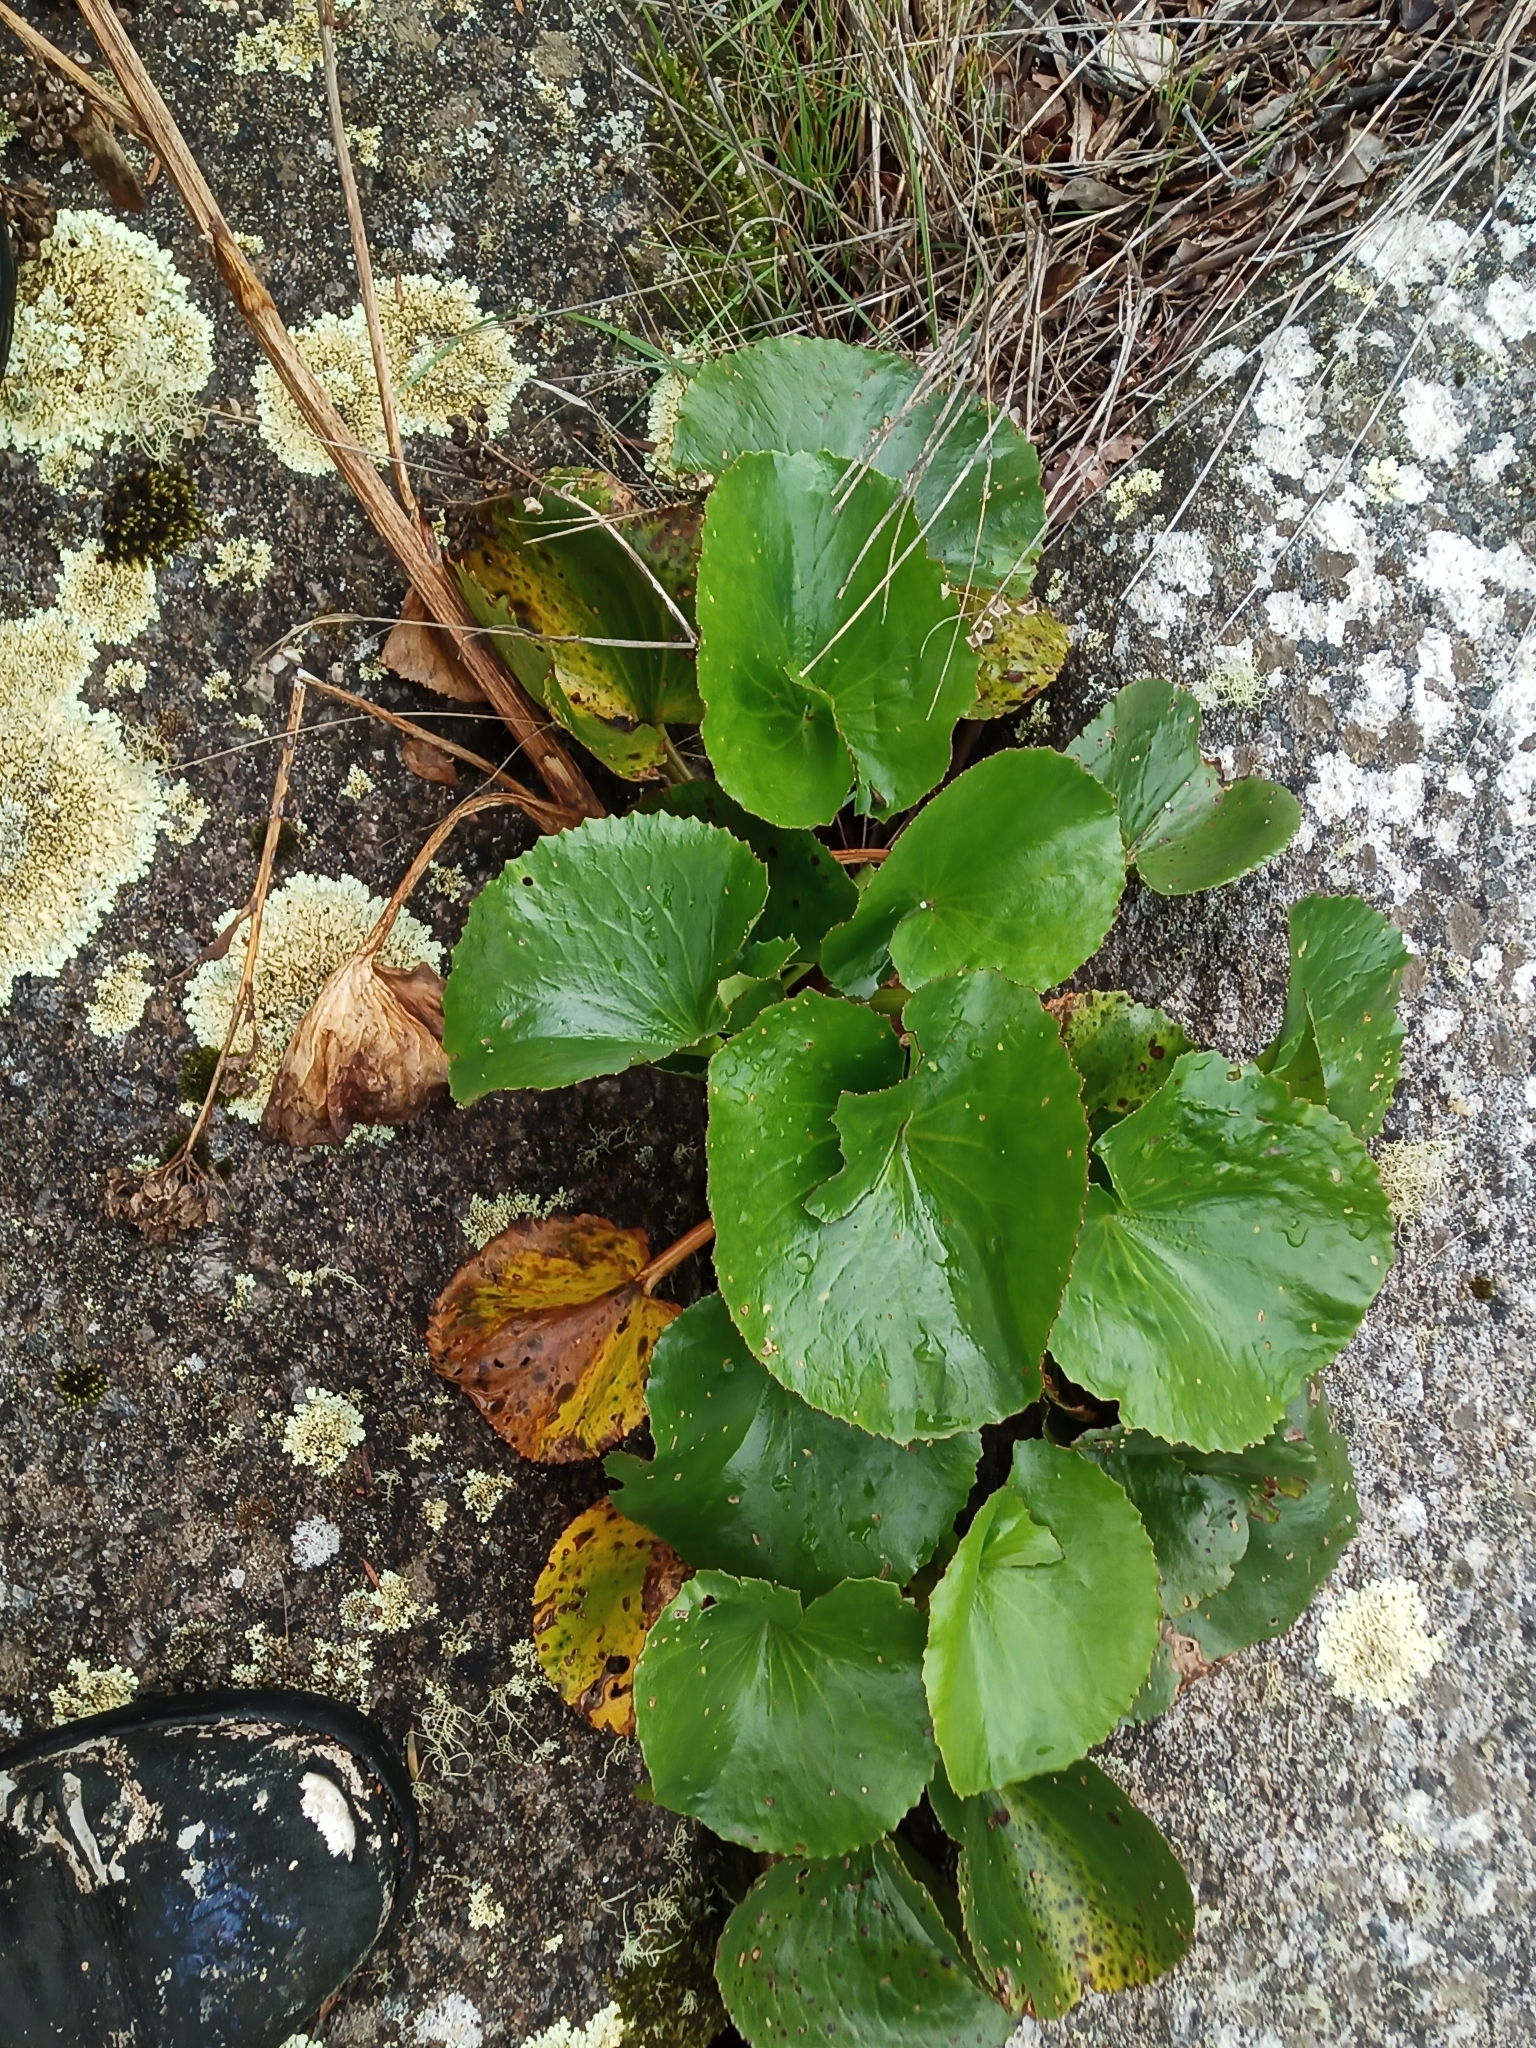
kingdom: Plantae
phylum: Tracheophyta
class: Magnoliopsida
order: Asterales
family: Menyanthaceae
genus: Ornduffia
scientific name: Ornduffia calthifolia
